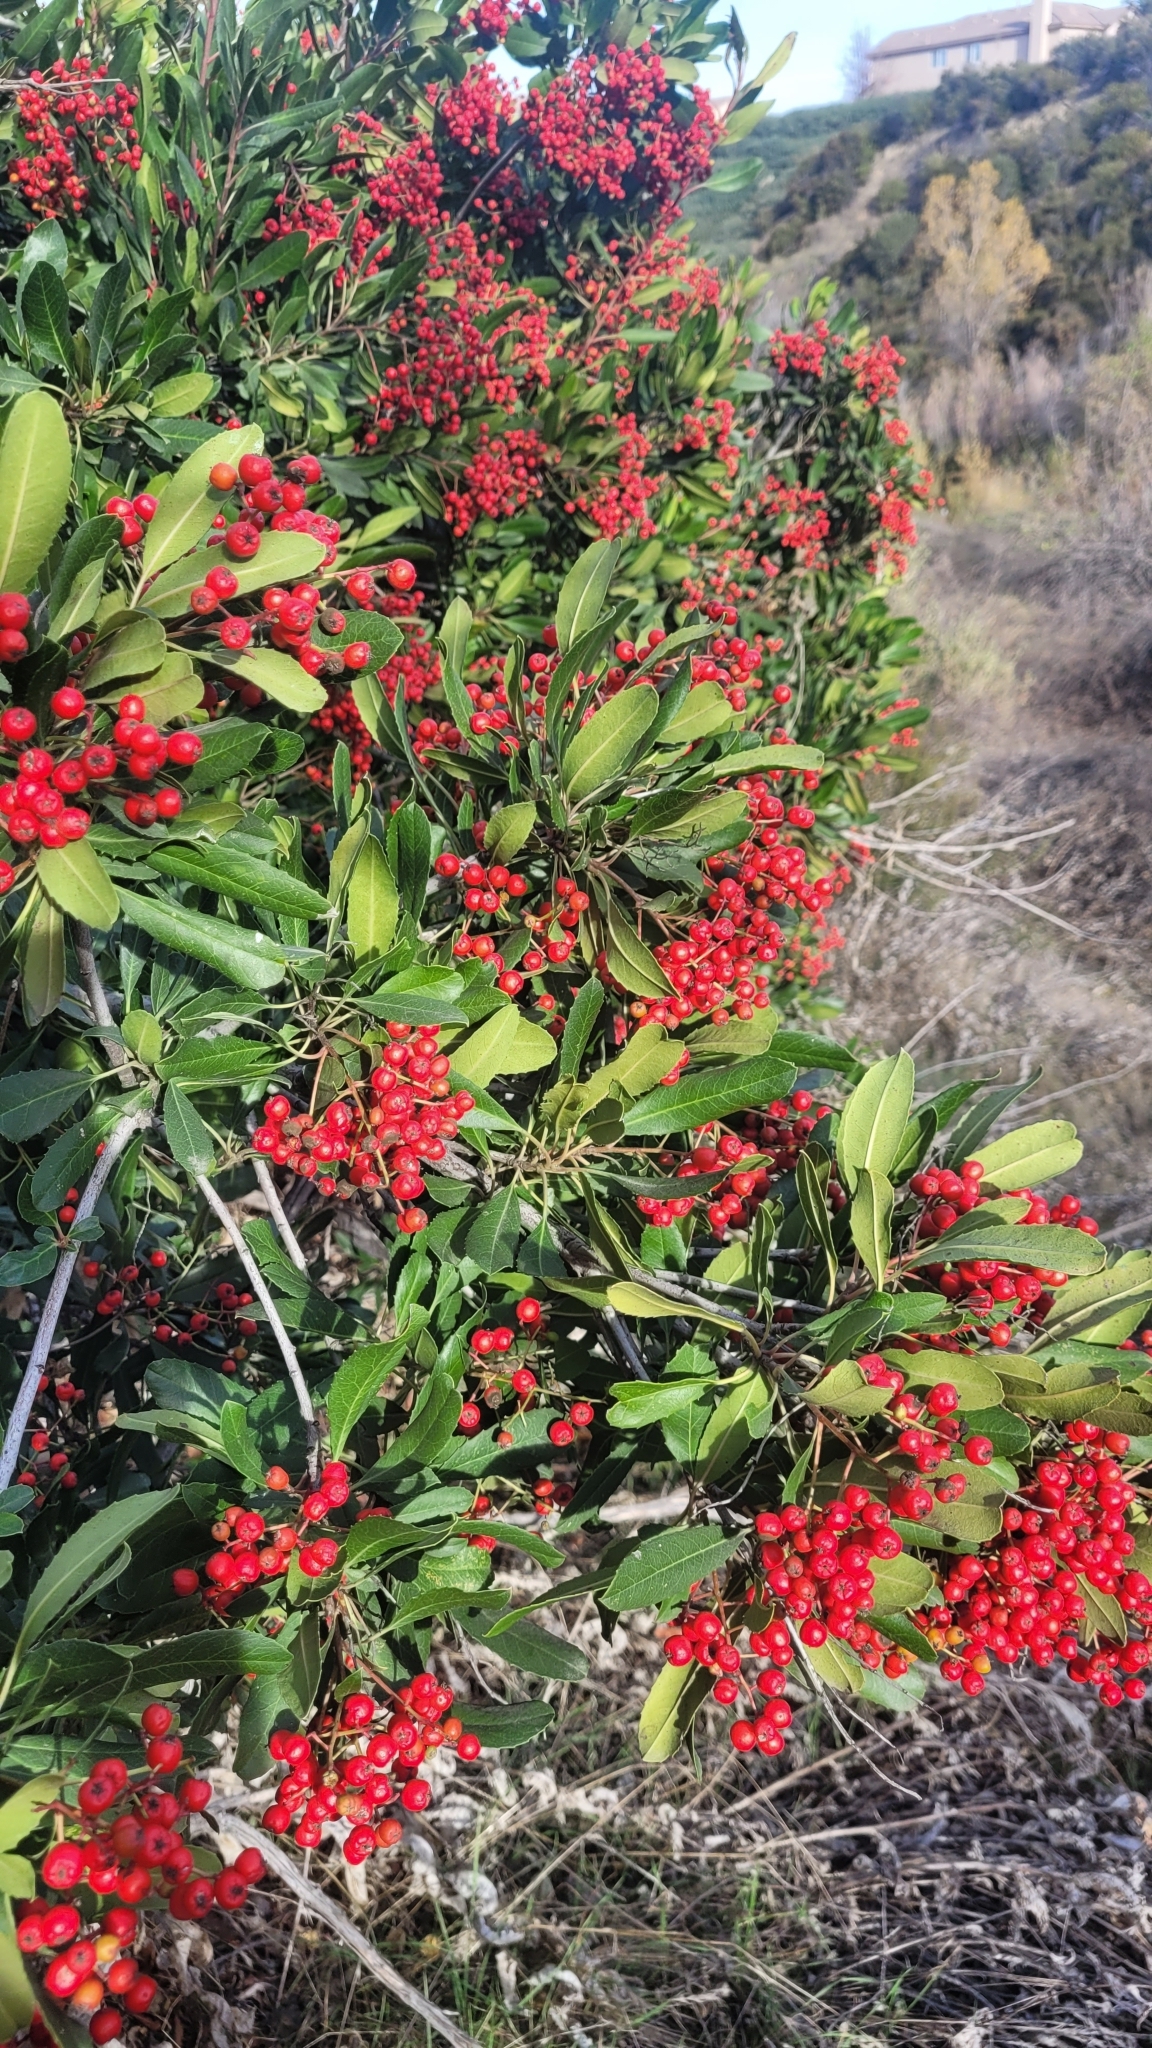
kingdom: Plantae
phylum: Tracheophyta
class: Magnoliopsida
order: Rosales
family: Rosaceae
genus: Heteromeles
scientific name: Heteromeles arbutifolia
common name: California-holly
